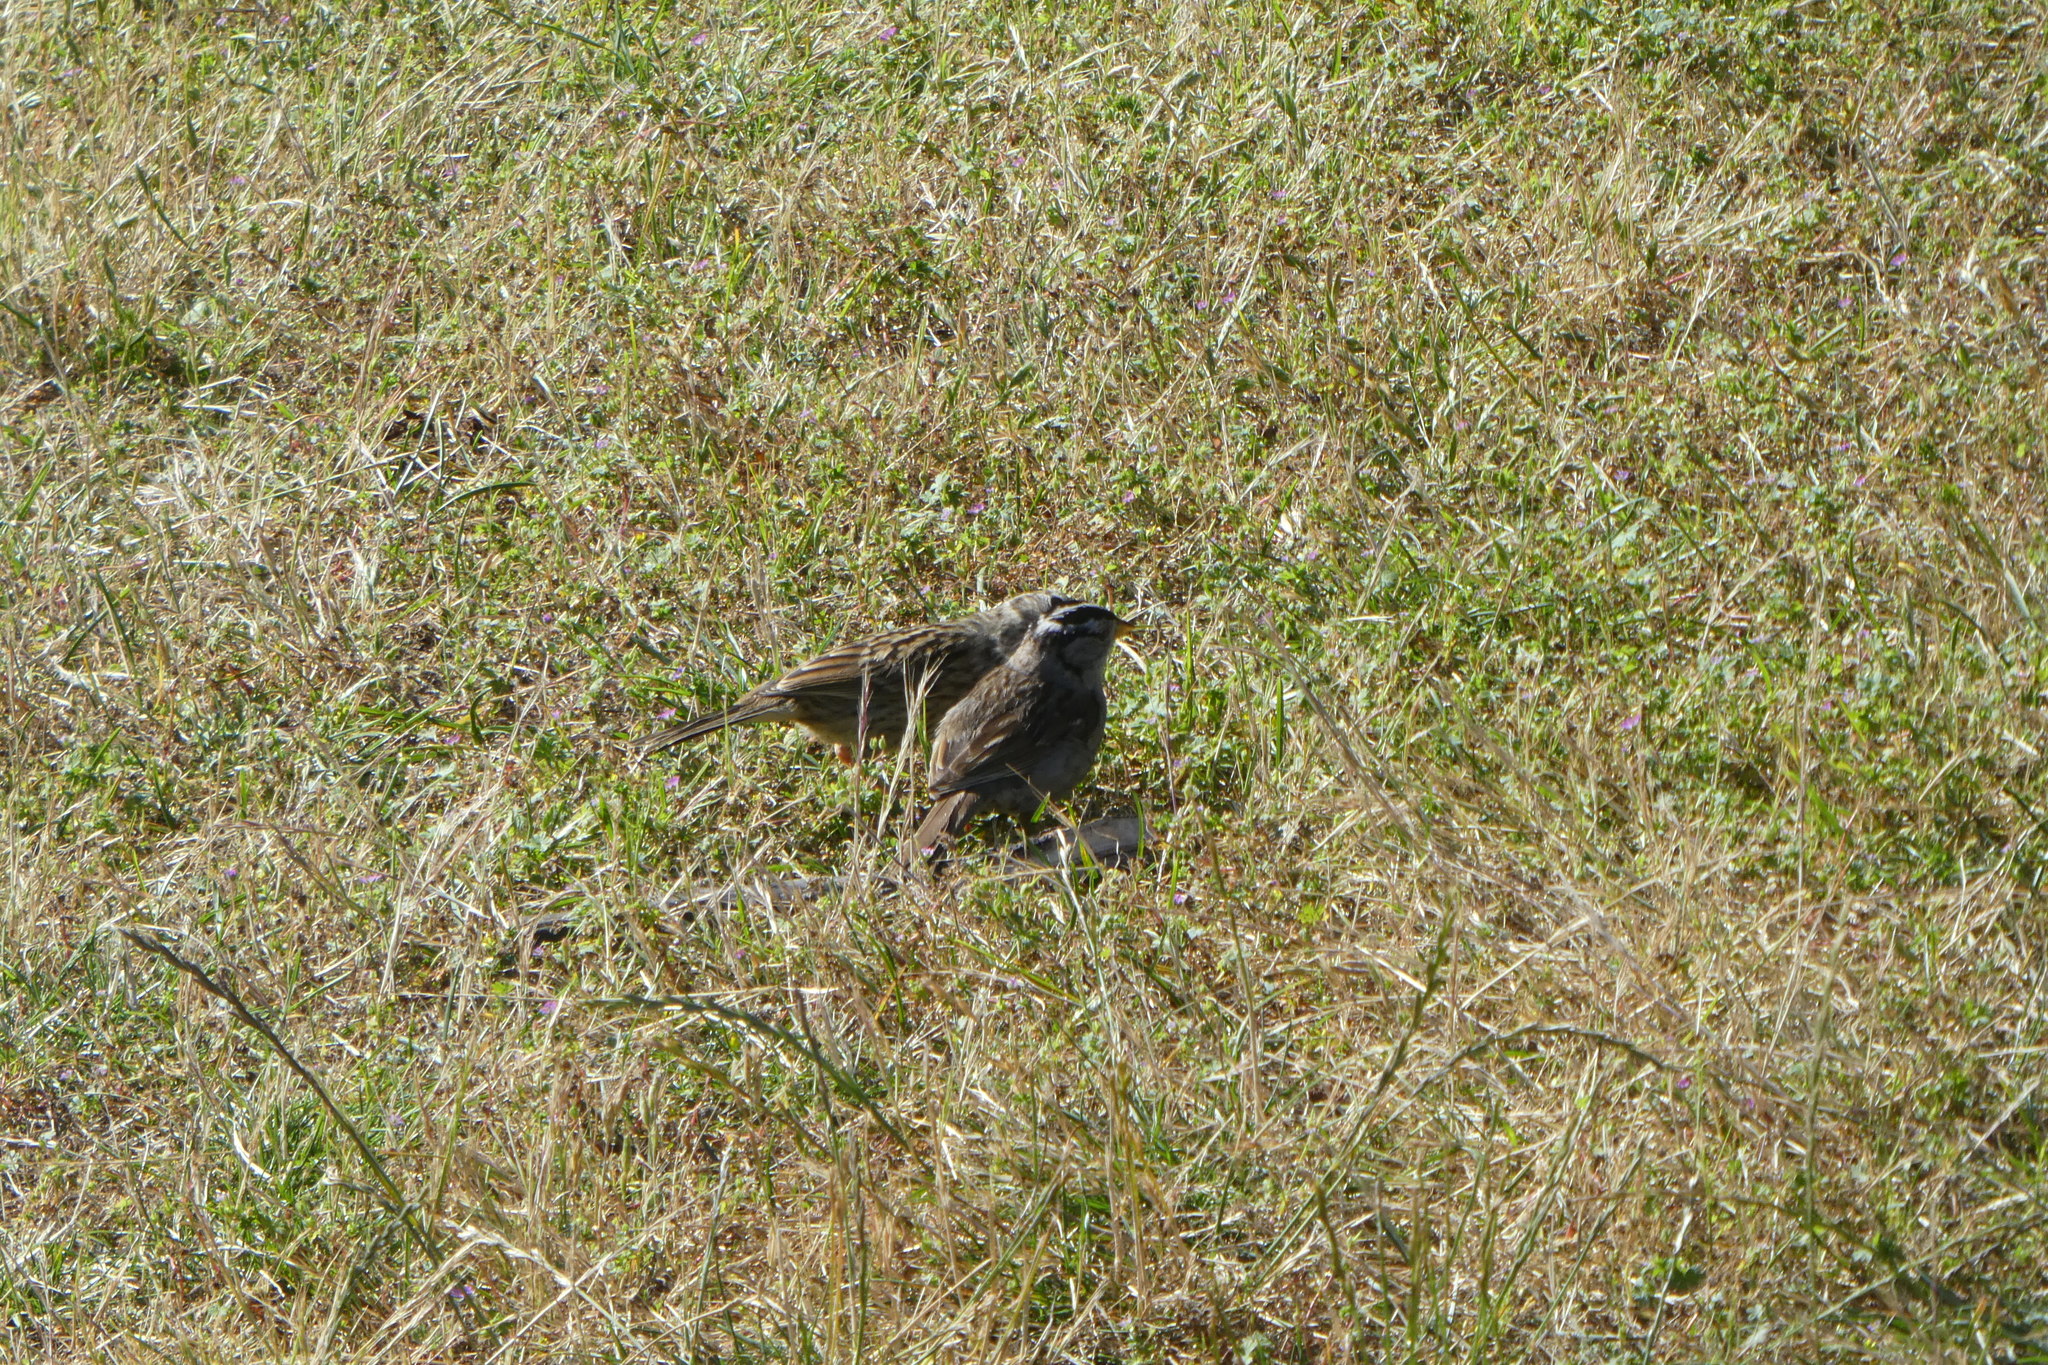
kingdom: Animalia
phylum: Chordata
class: Aves
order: Passeriformes
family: Passerellidae
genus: Zonotrichia
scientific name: Zonotrichia leucophrys
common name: White-crowned sparrow
